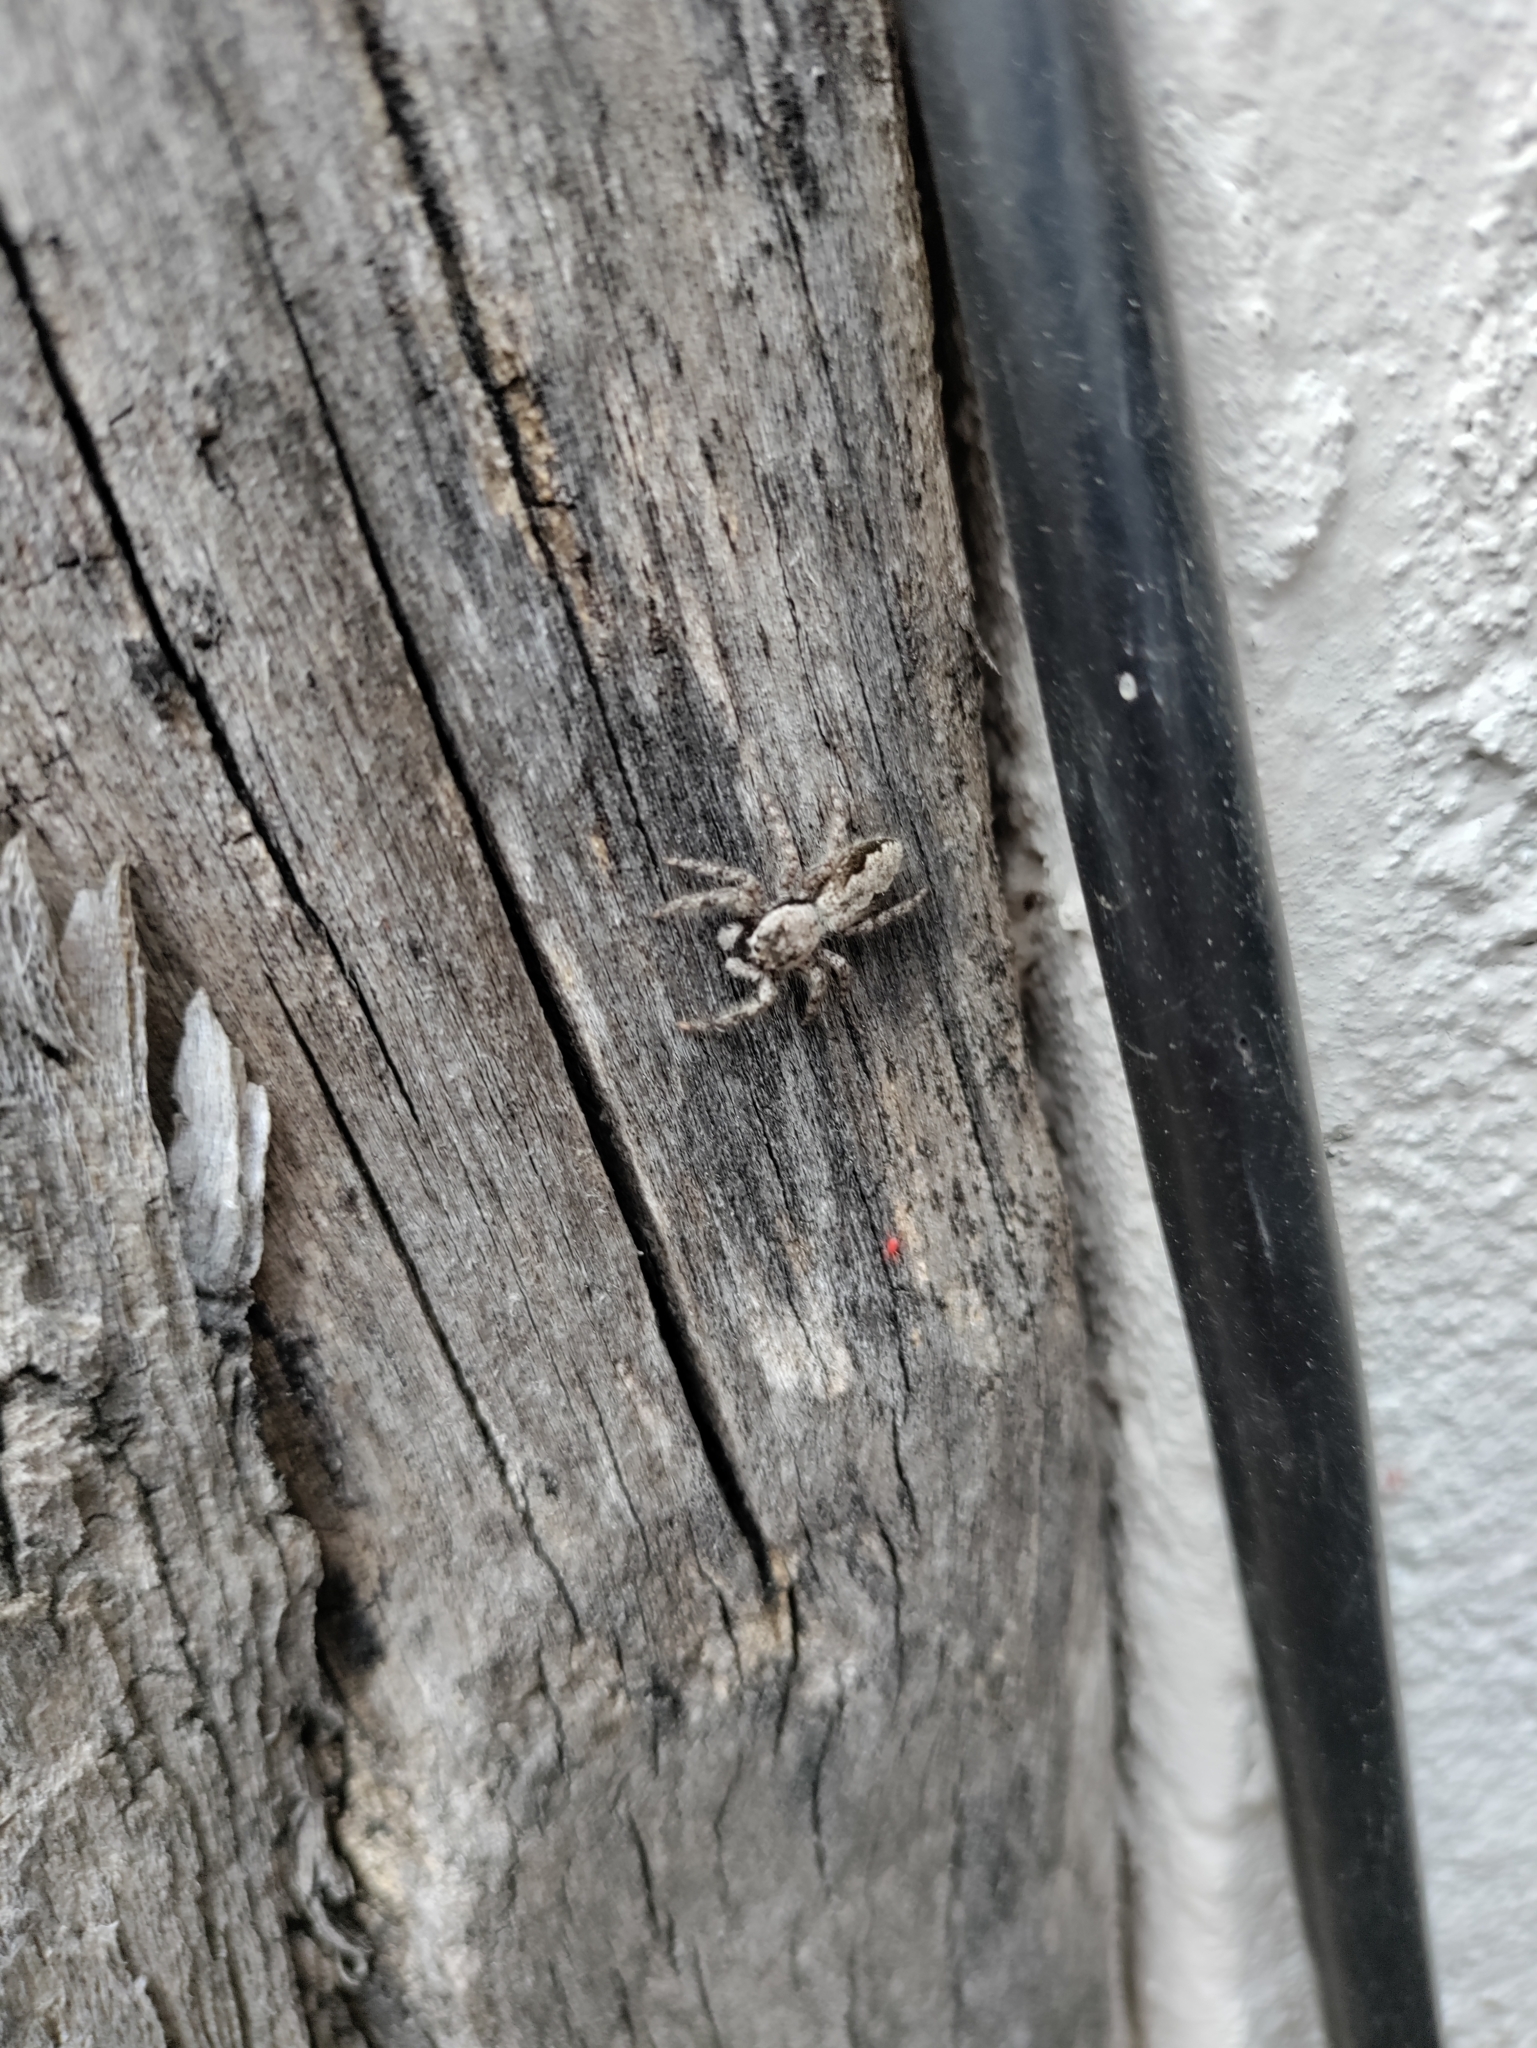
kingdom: Animalia
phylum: Arthropoda
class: Arachnida
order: Araneae
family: Salticidae
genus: Platycryptus
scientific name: Platycryptus undatus
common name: Tan jumping spider
